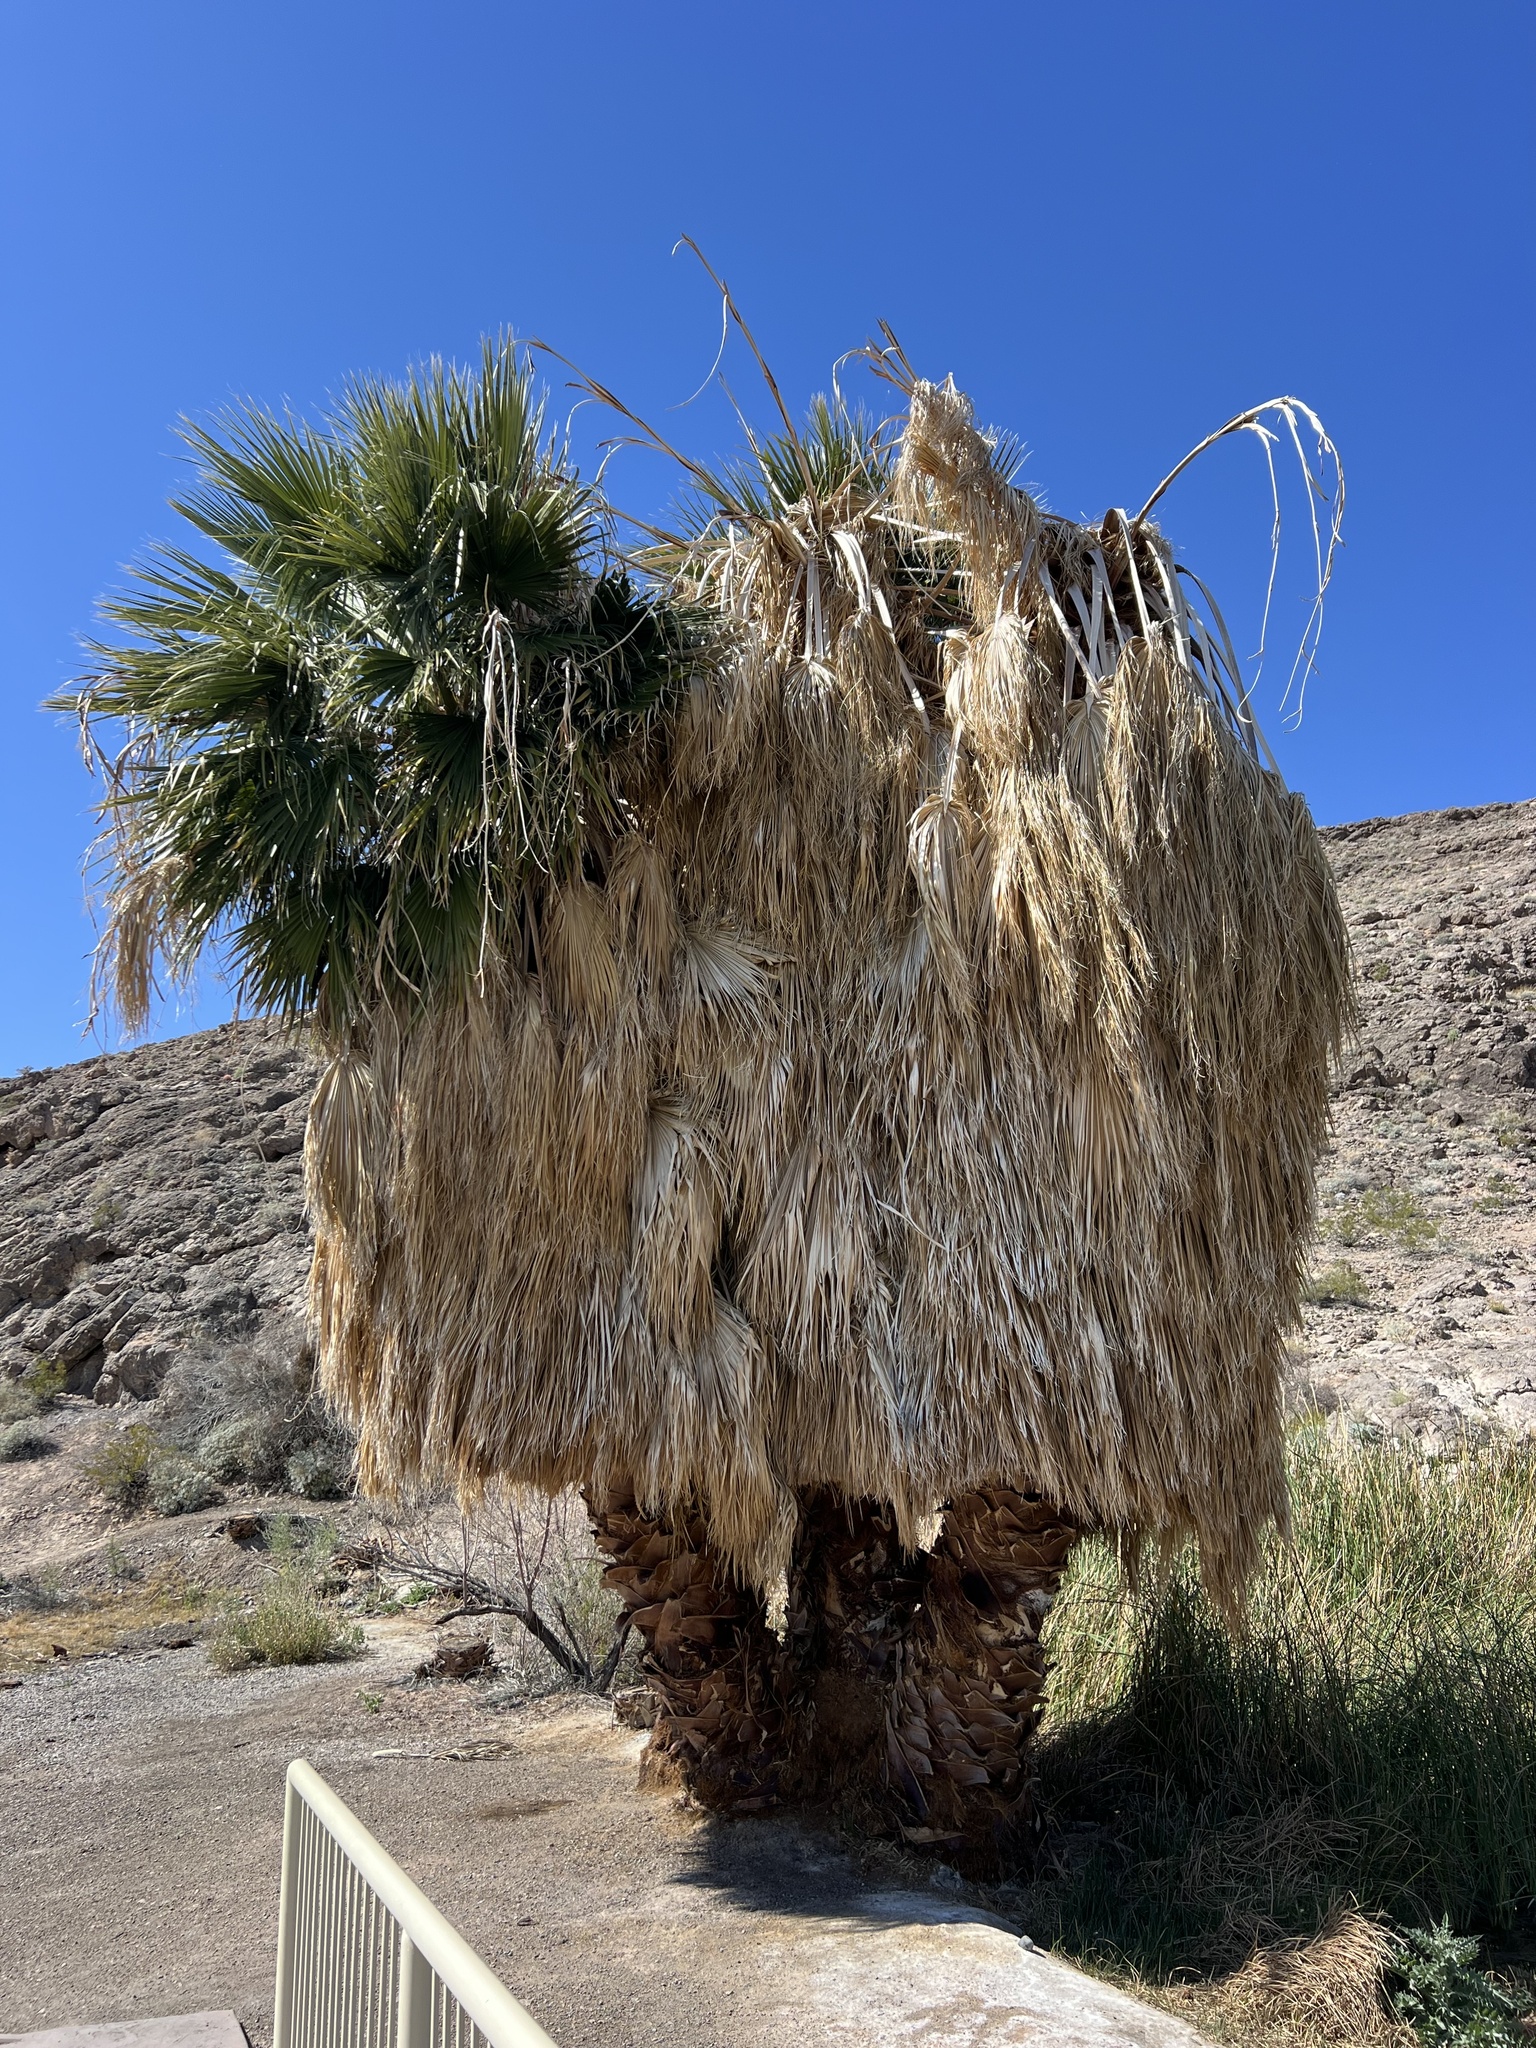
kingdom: Plantae
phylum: Tracheophyta
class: Liliopsida
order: Arecales
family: Arecaceae
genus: Washingtonia
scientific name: Washingtonia robusta
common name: Mexican fan palm
